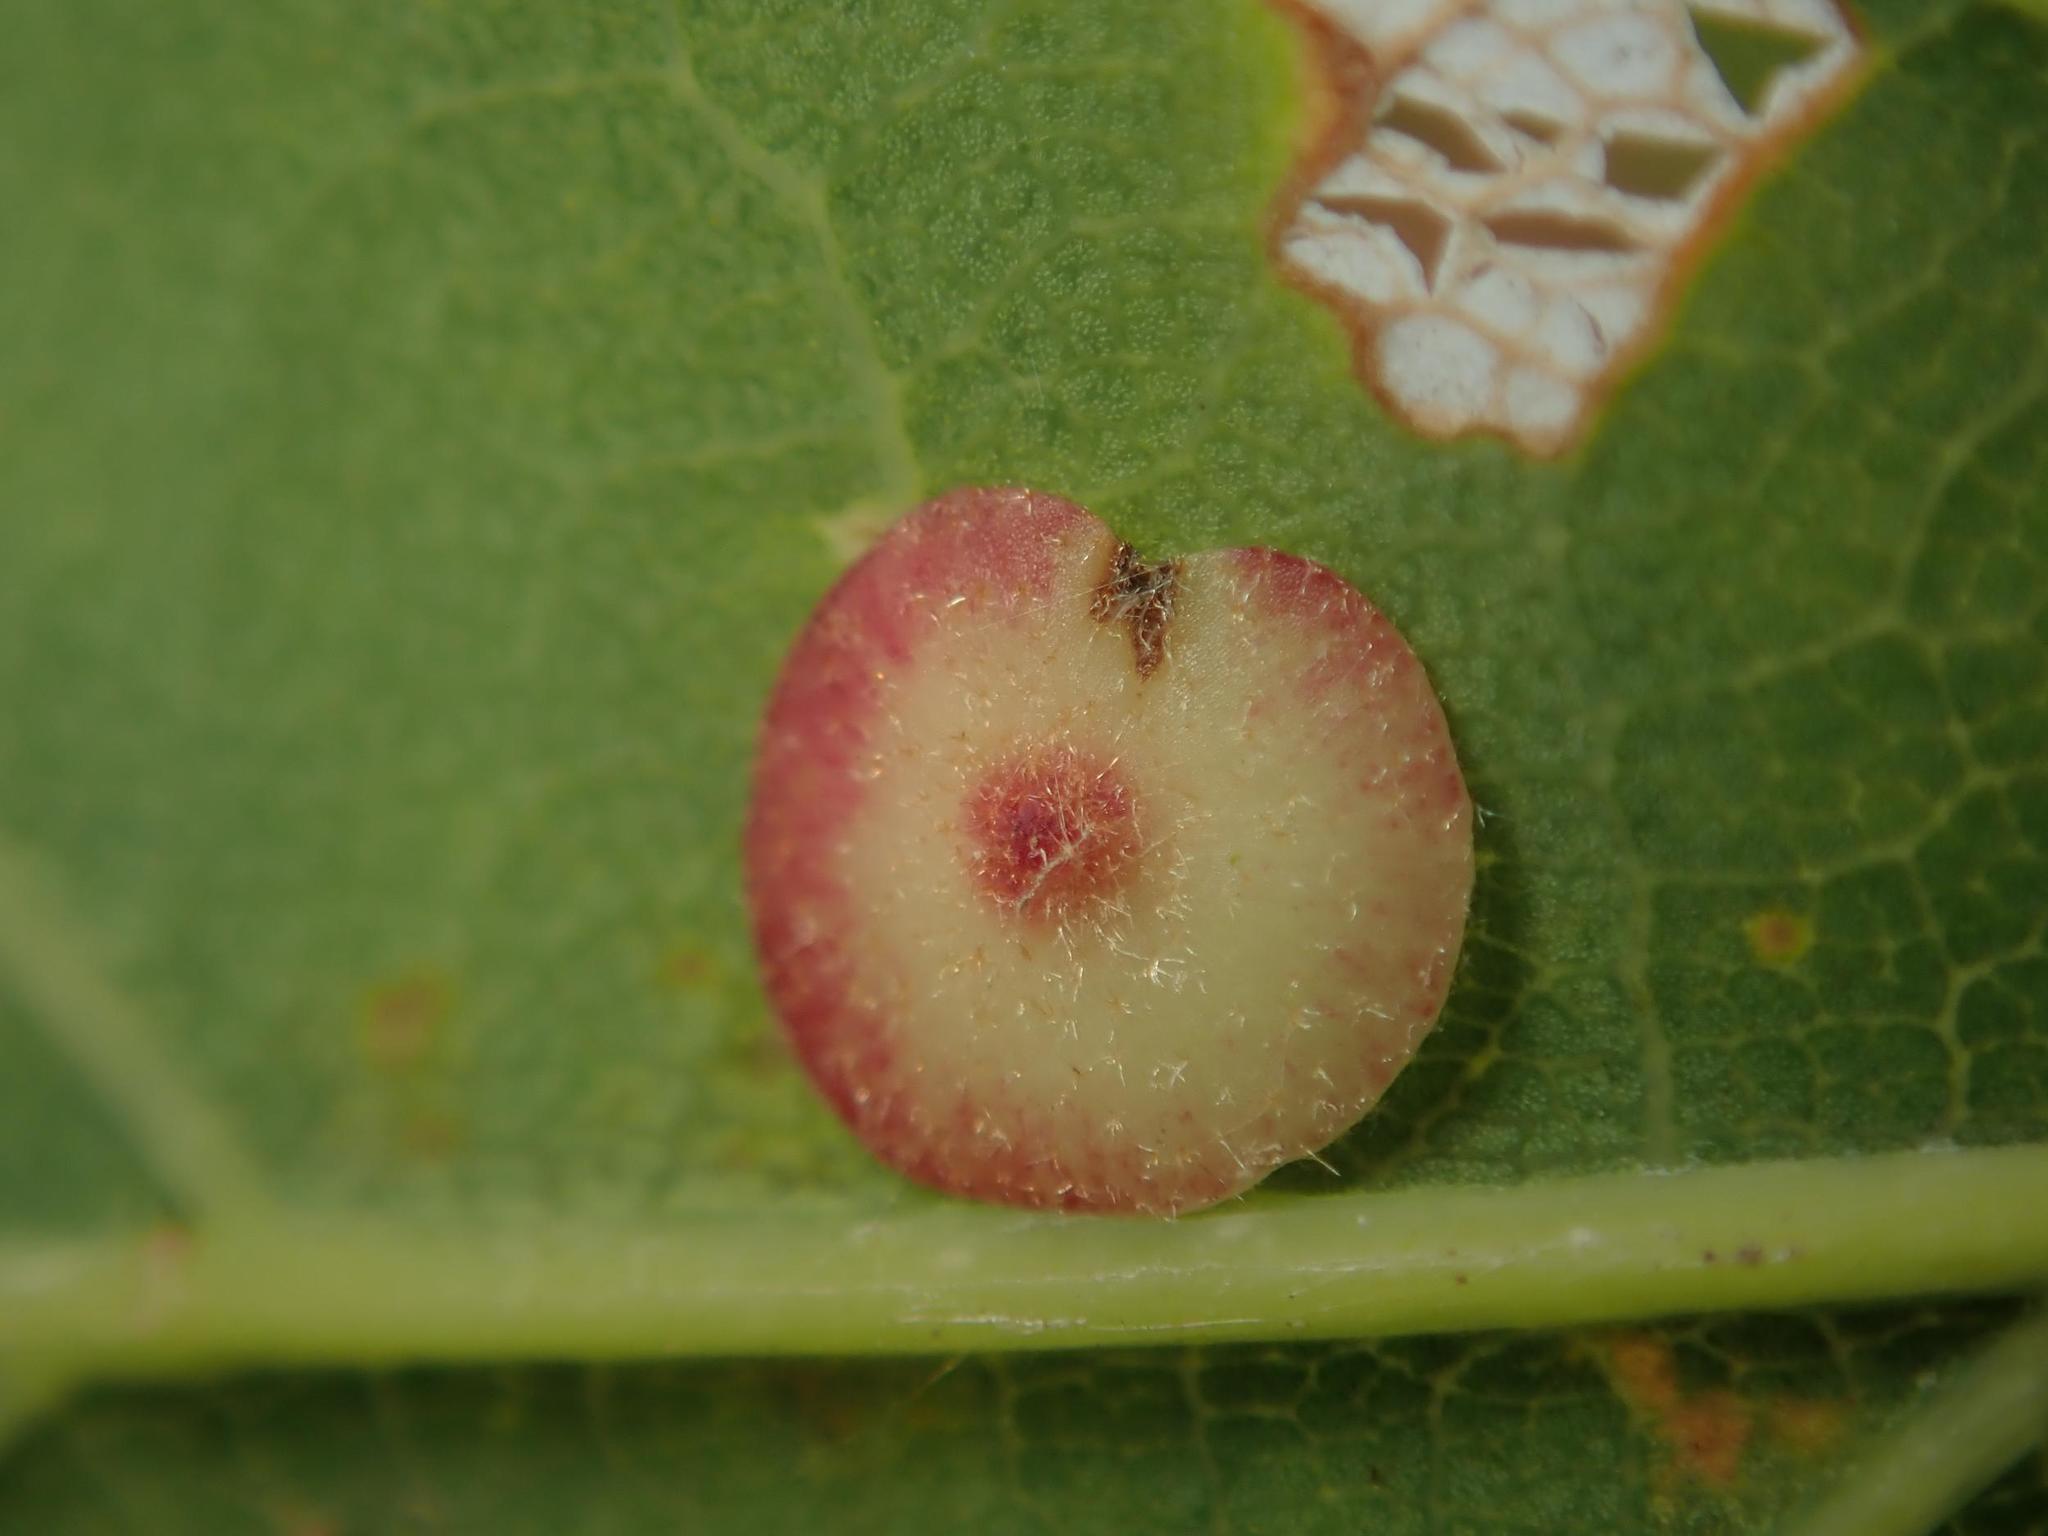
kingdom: Animalia
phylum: Arthropoda
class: Insecta
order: Hymenoptera
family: Cynipidae
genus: Neuroterus
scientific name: Neuroterus albipes
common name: Smooth spangle gall
